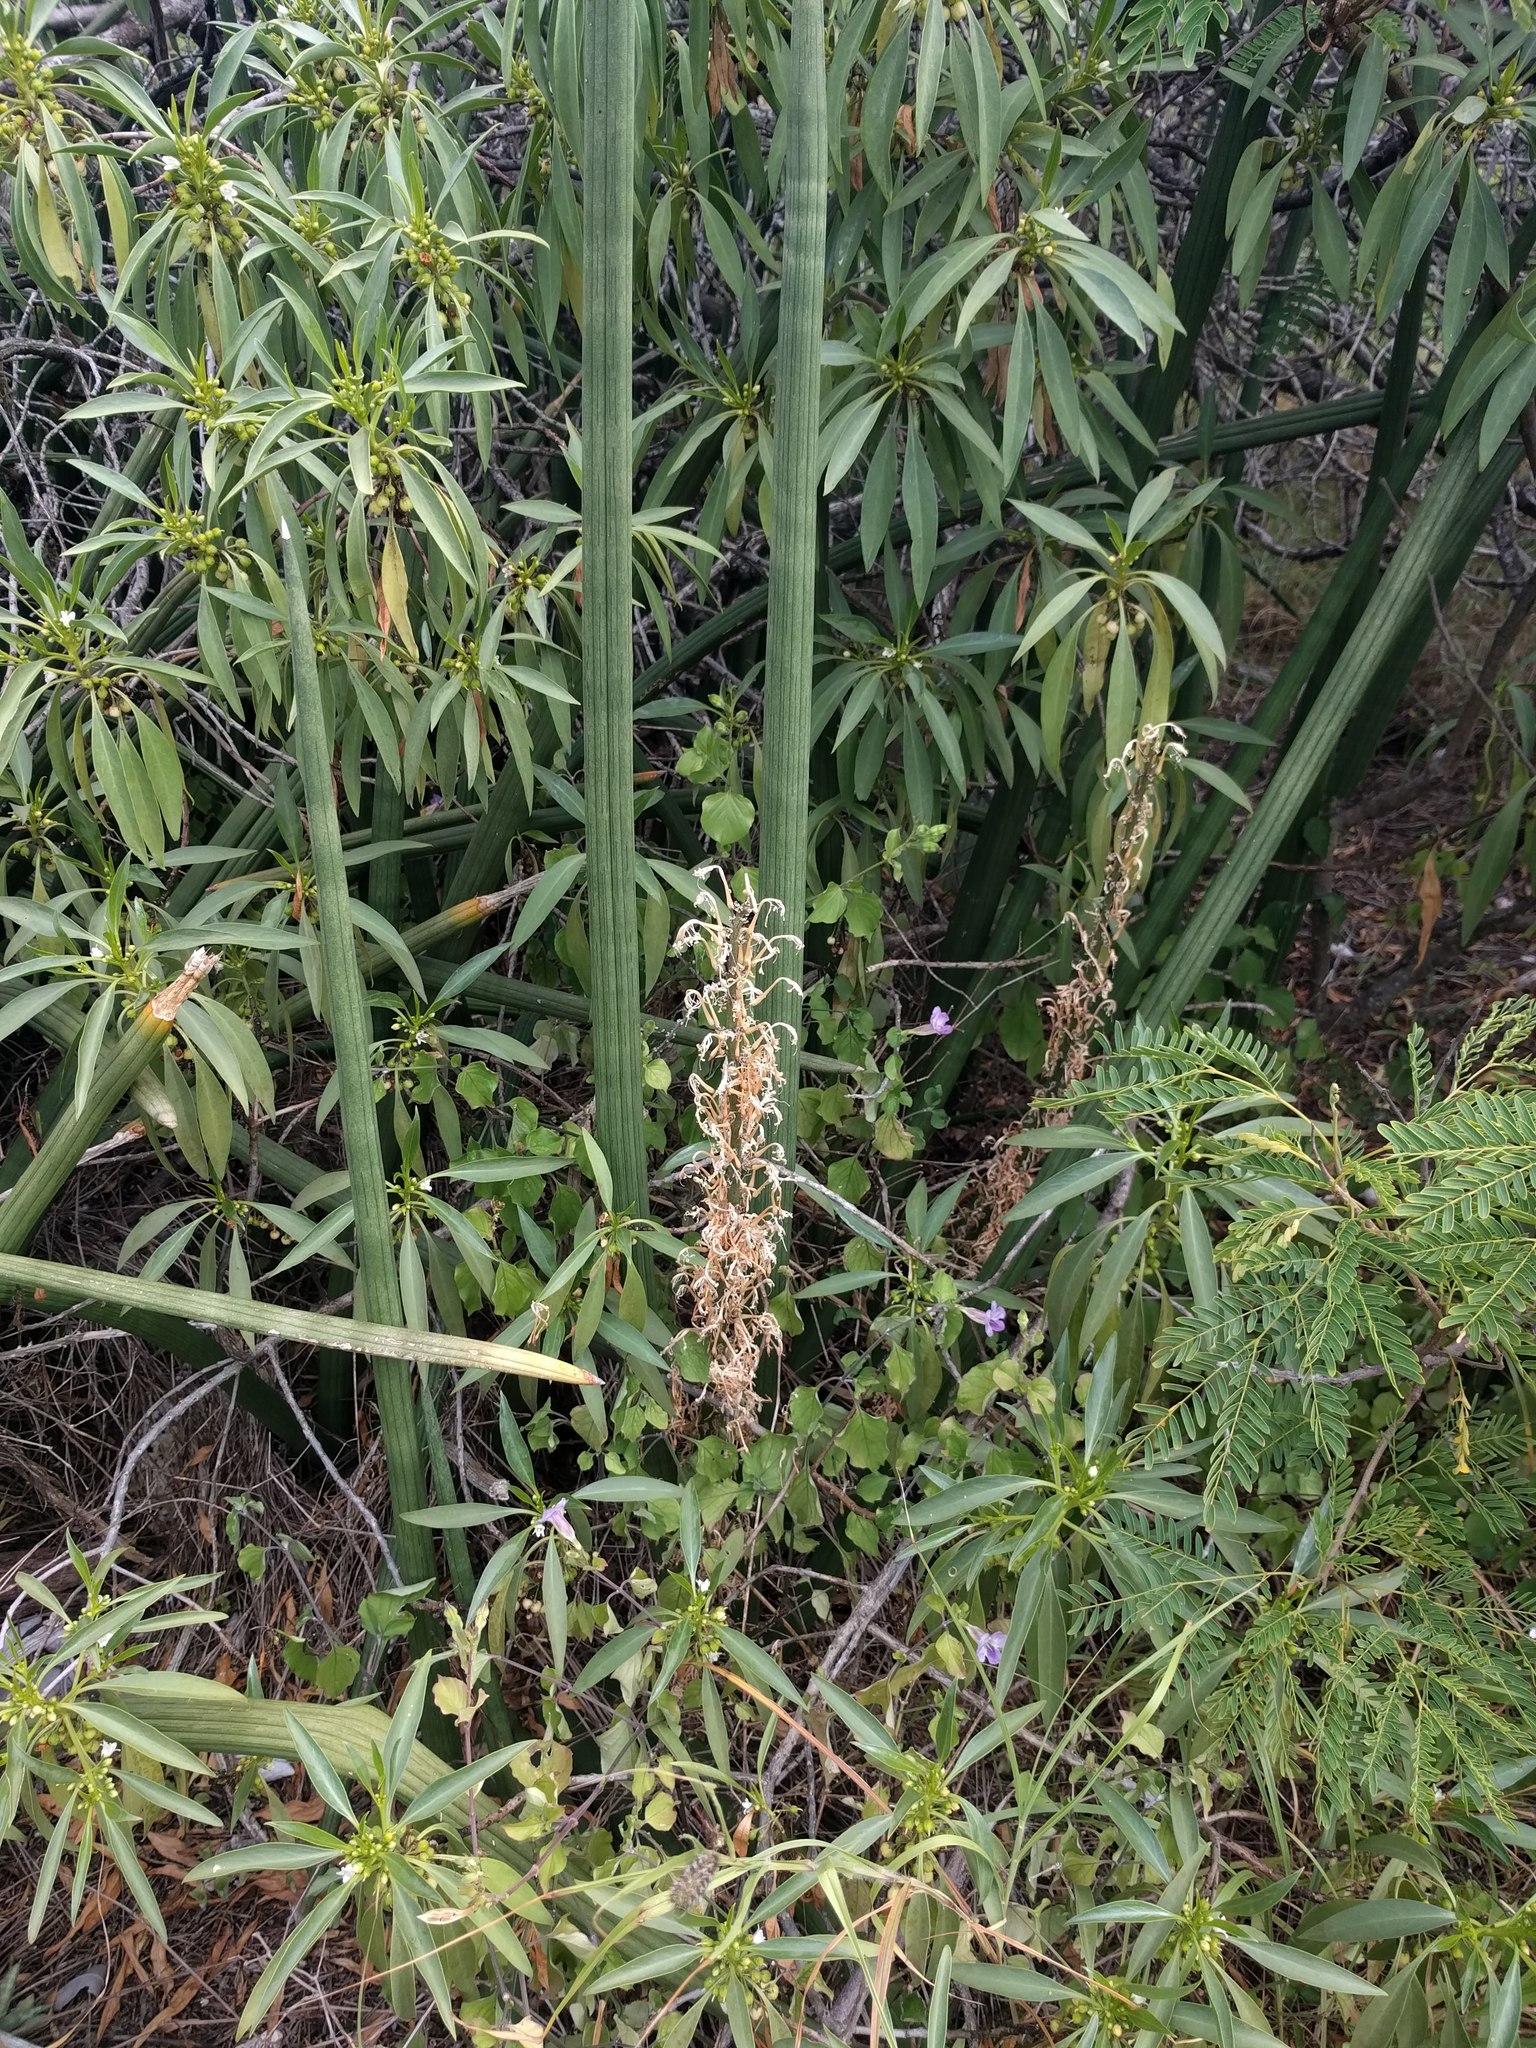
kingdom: Plantae
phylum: Tracheophyta
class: Liliopsida
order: Asparagales
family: Asparagaceae
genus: Dracaena
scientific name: Dracaena angolensis
